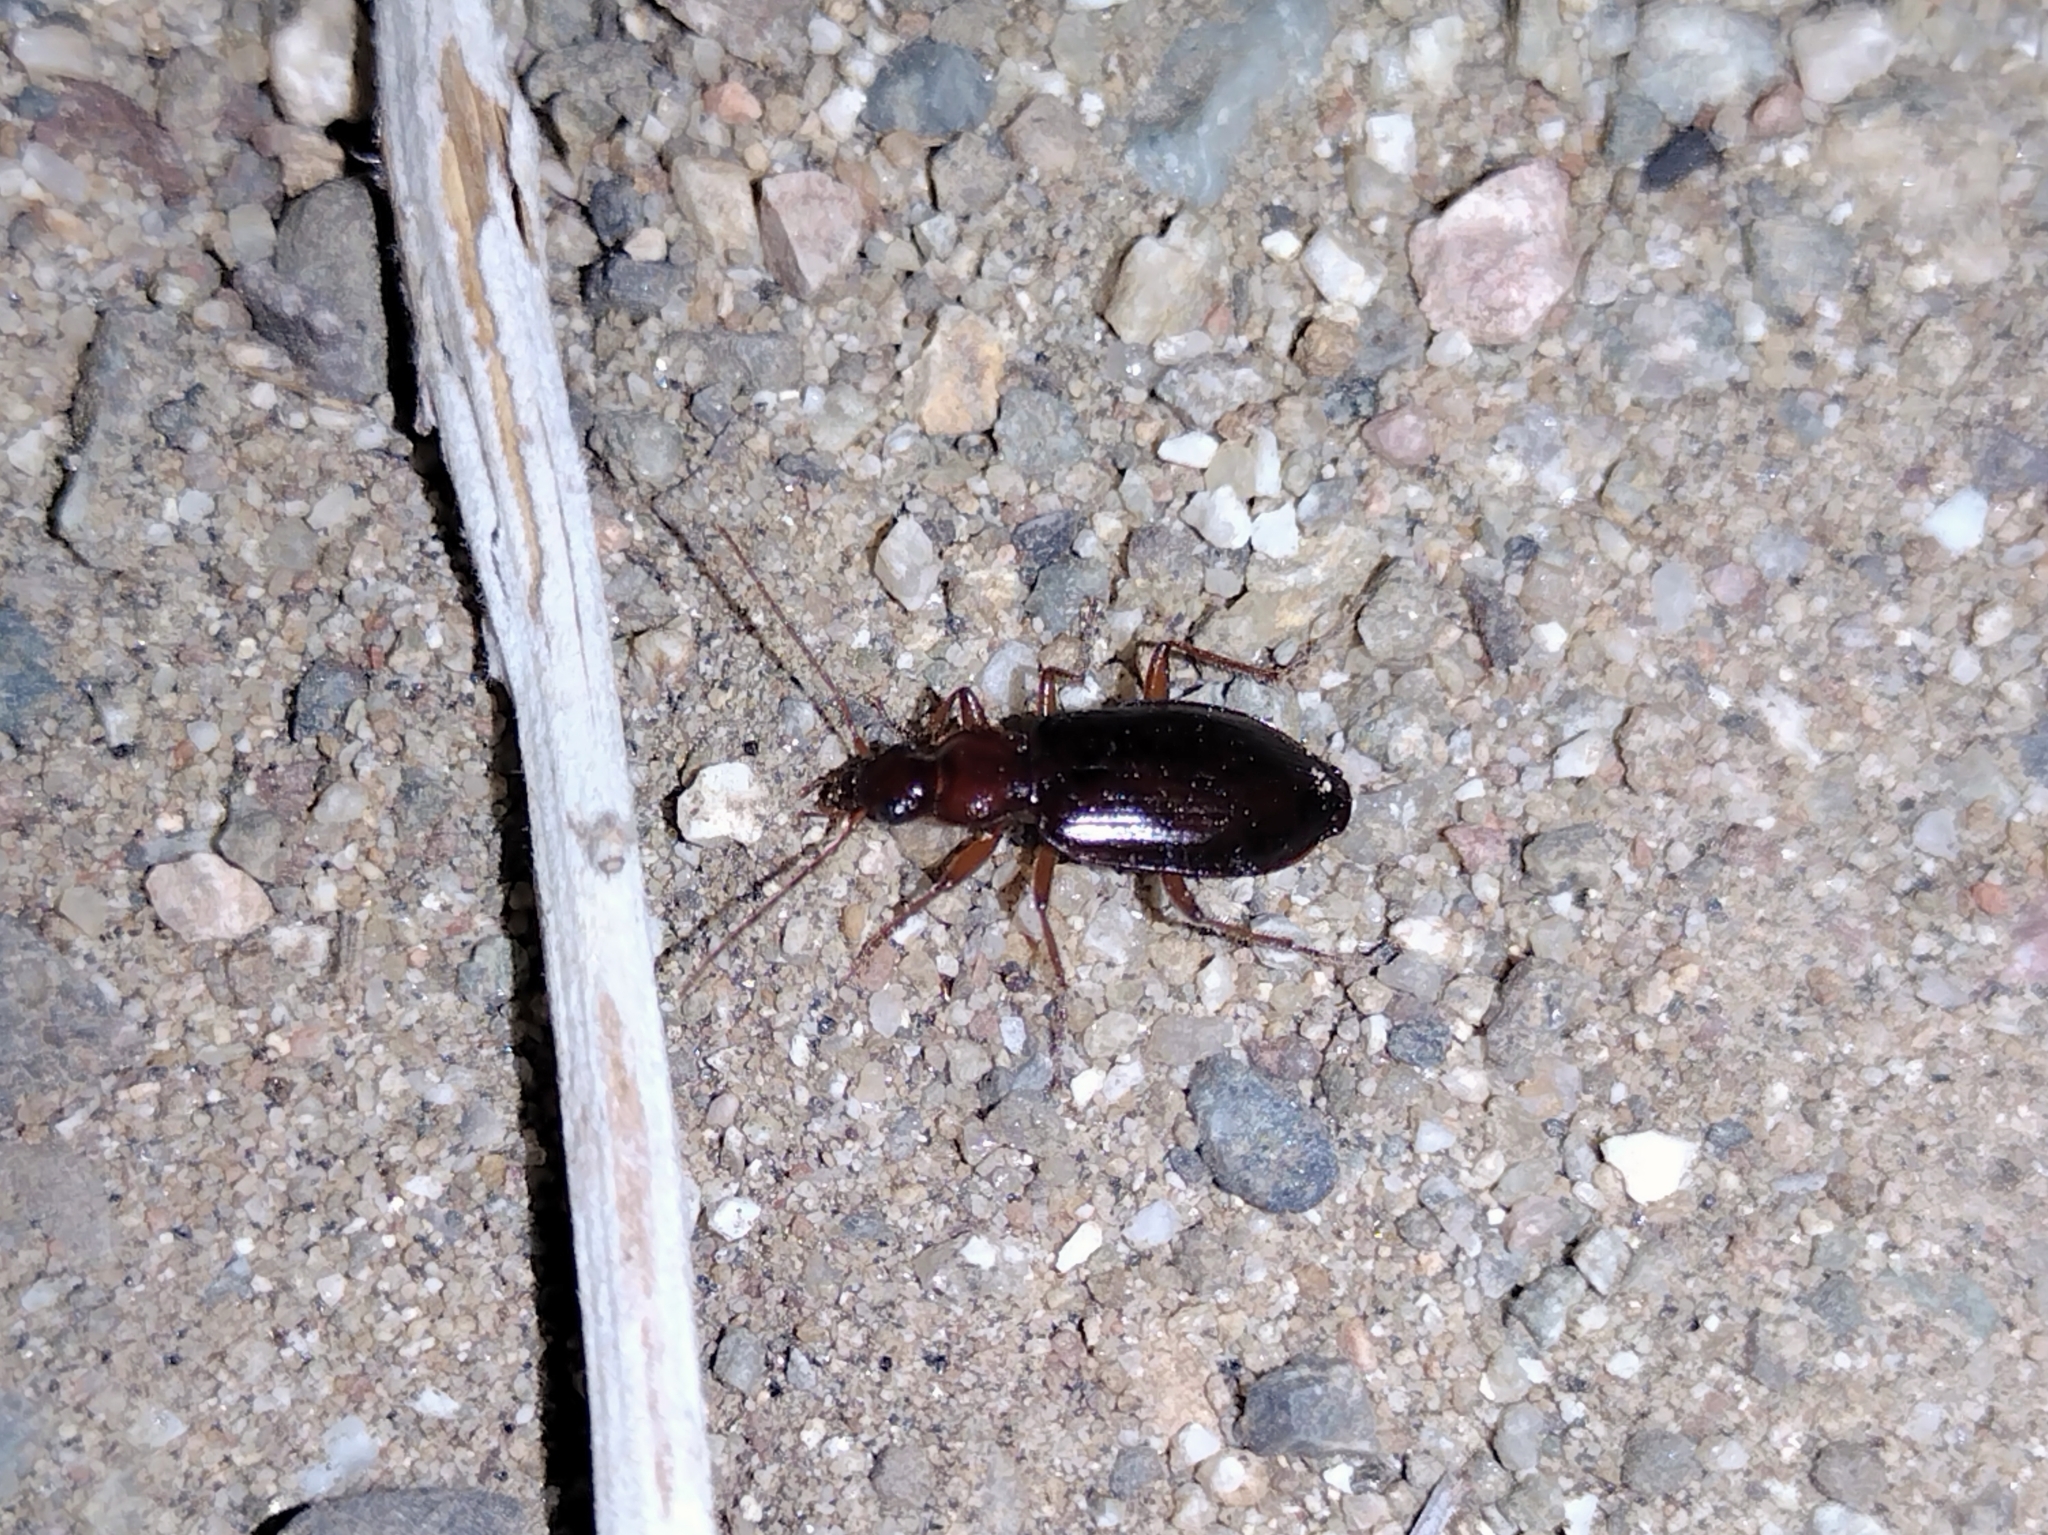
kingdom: Animalia
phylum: Arthropoda
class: Insecta
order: Coleoptera
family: Carabidae
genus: Platynus
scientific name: Platynus brunneomarginatus
